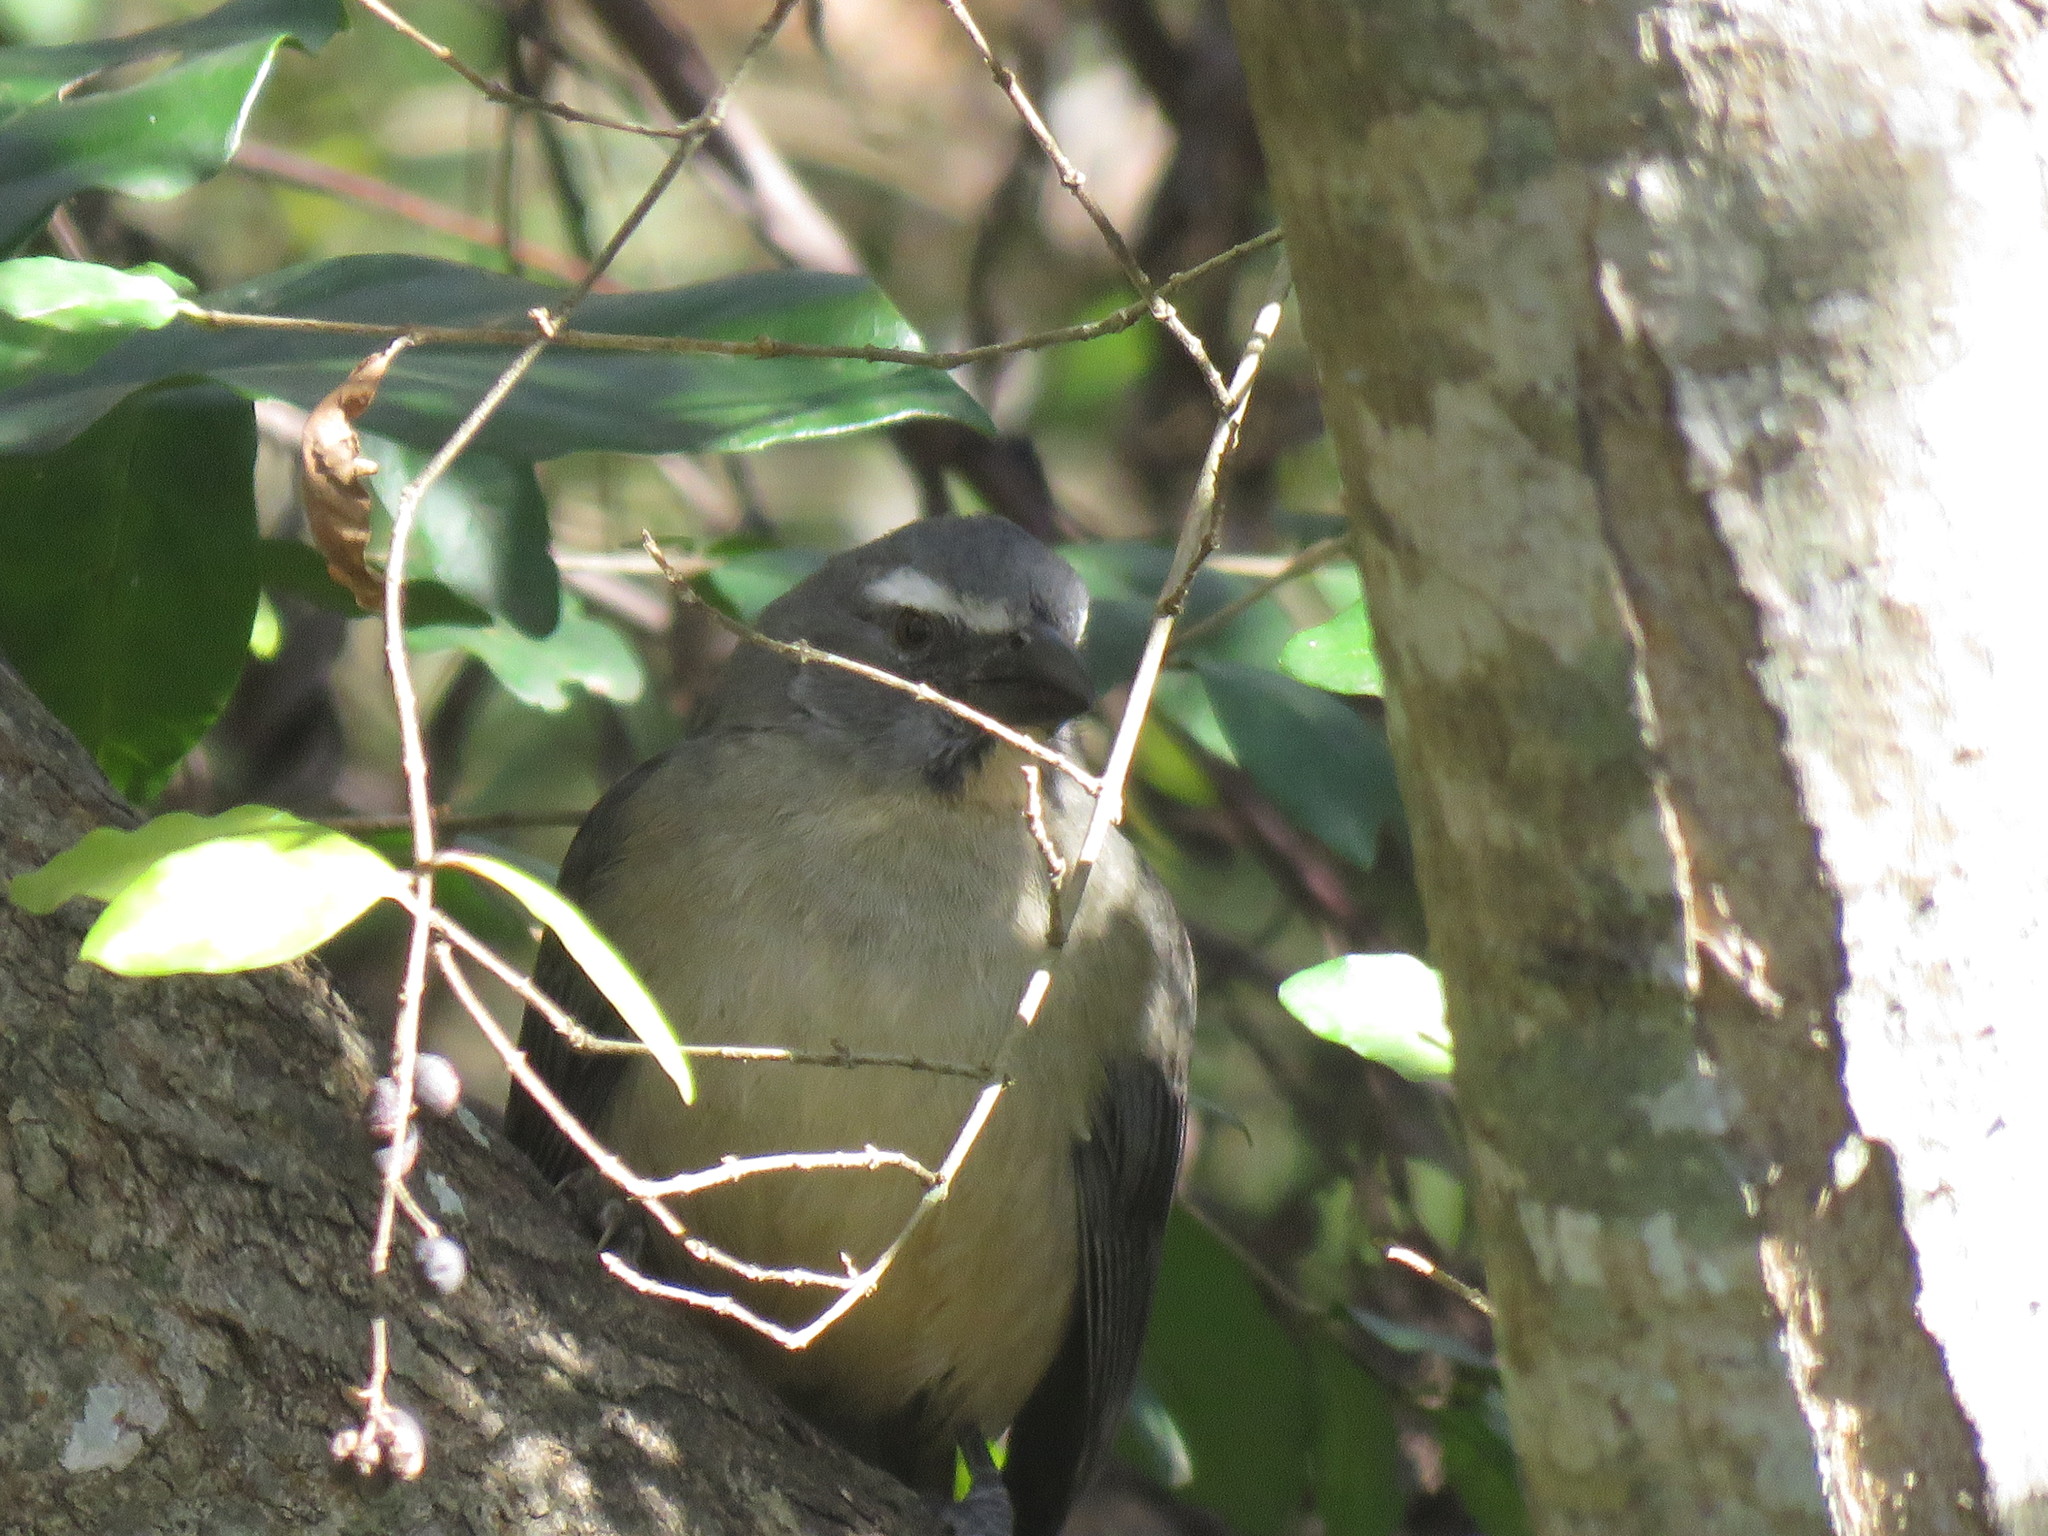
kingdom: Animalia
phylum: Chordata
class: Aves
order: Passeriformes
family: Thraupidae
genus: Saltator
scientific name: Saltator coerulescens
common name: Grayish saltator
